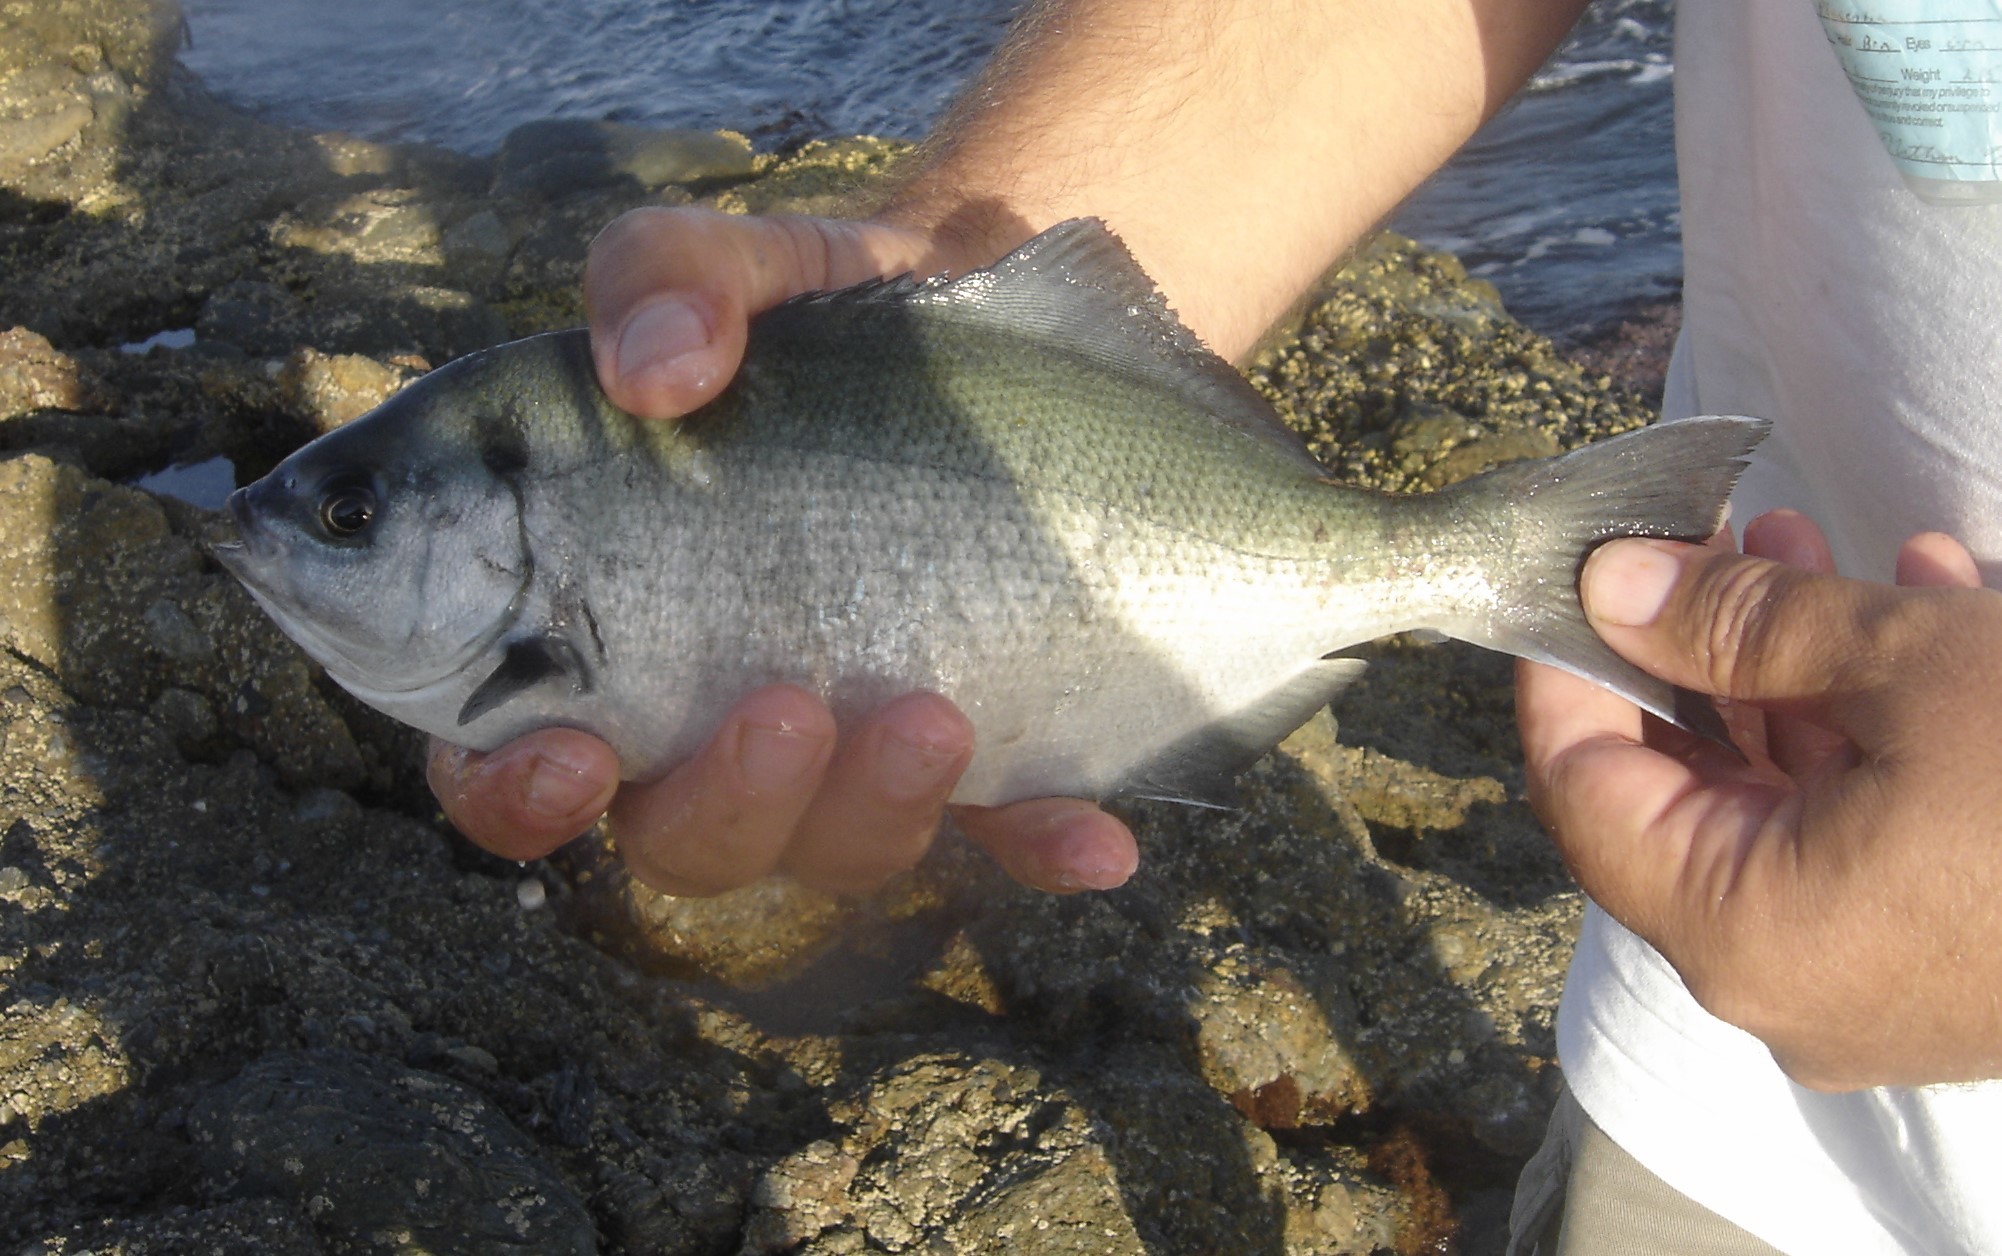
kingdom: Animalia
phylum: Chordata
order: Perciformes
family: Kyphosidae
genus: Medialuna
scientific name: Medialuna californiensis
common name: Halfmoon
